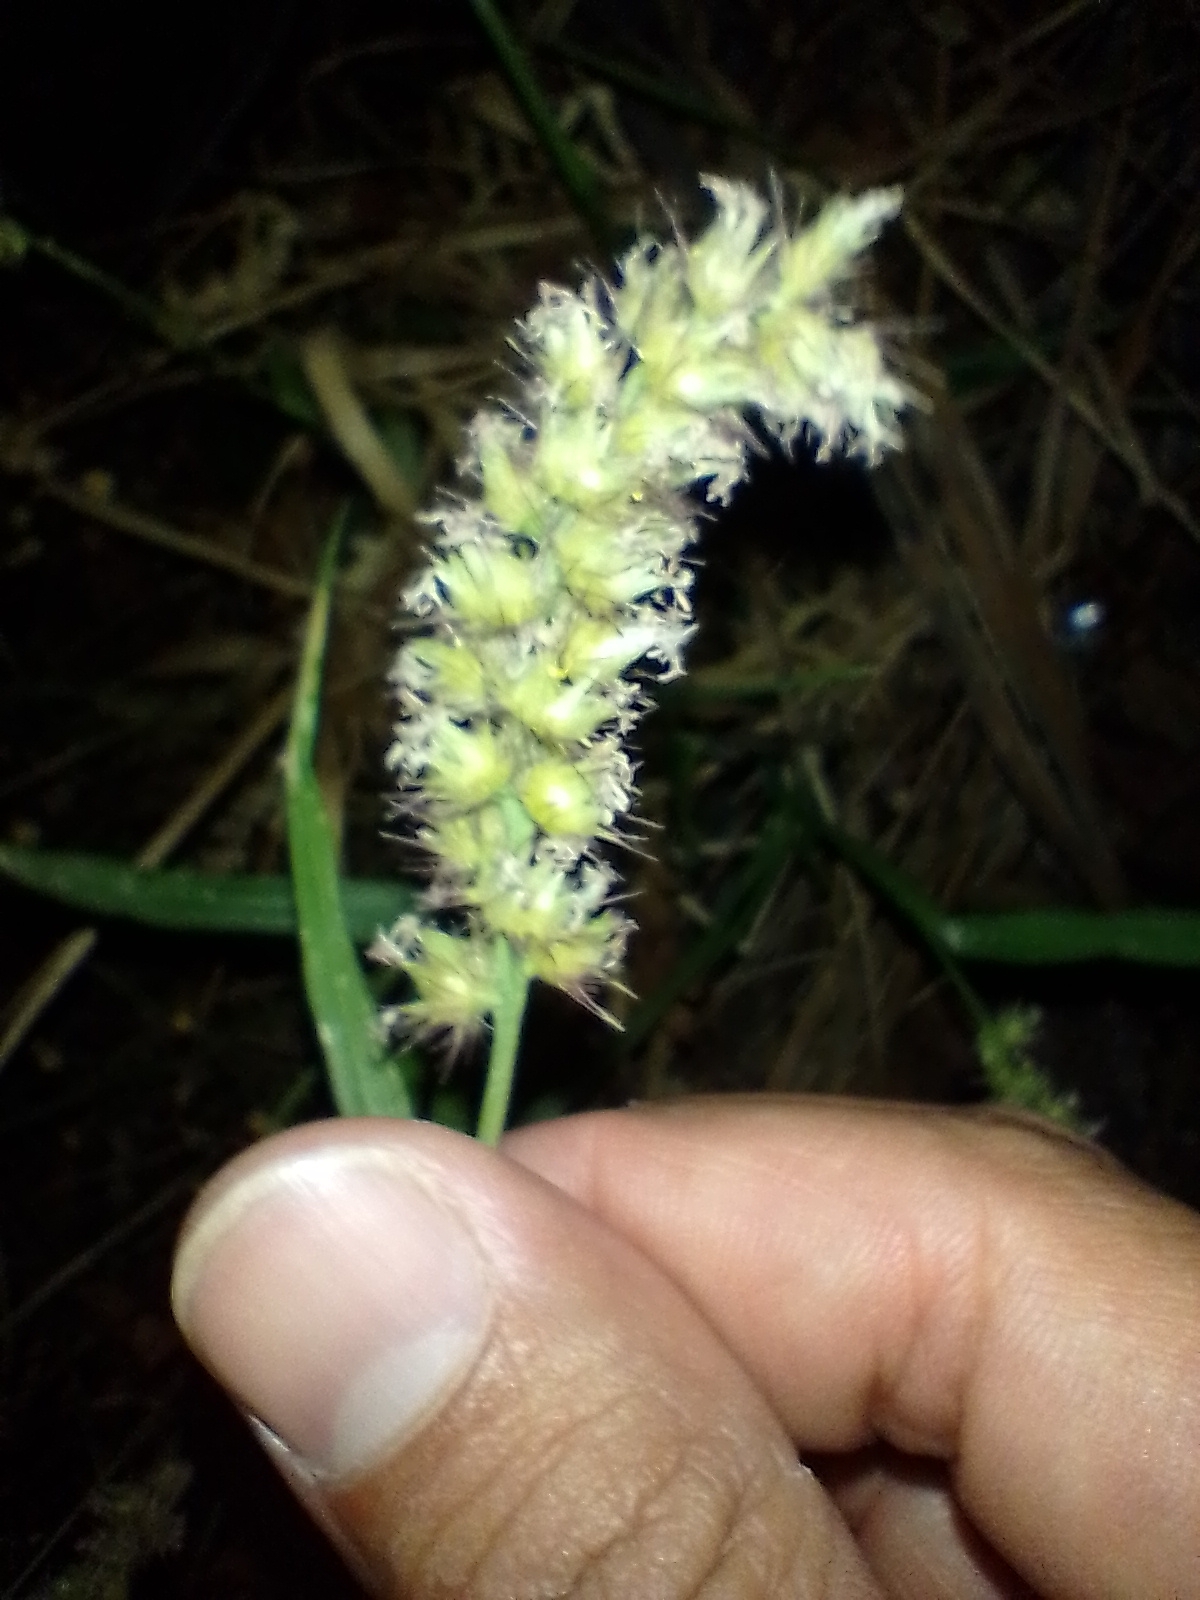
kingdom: Plantae
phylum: Tracheophyta
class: Liliopsida
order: Poales
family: Poaceae
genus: Cenchrus
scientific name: Cenchrus echinatus
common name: Southern sandbur
